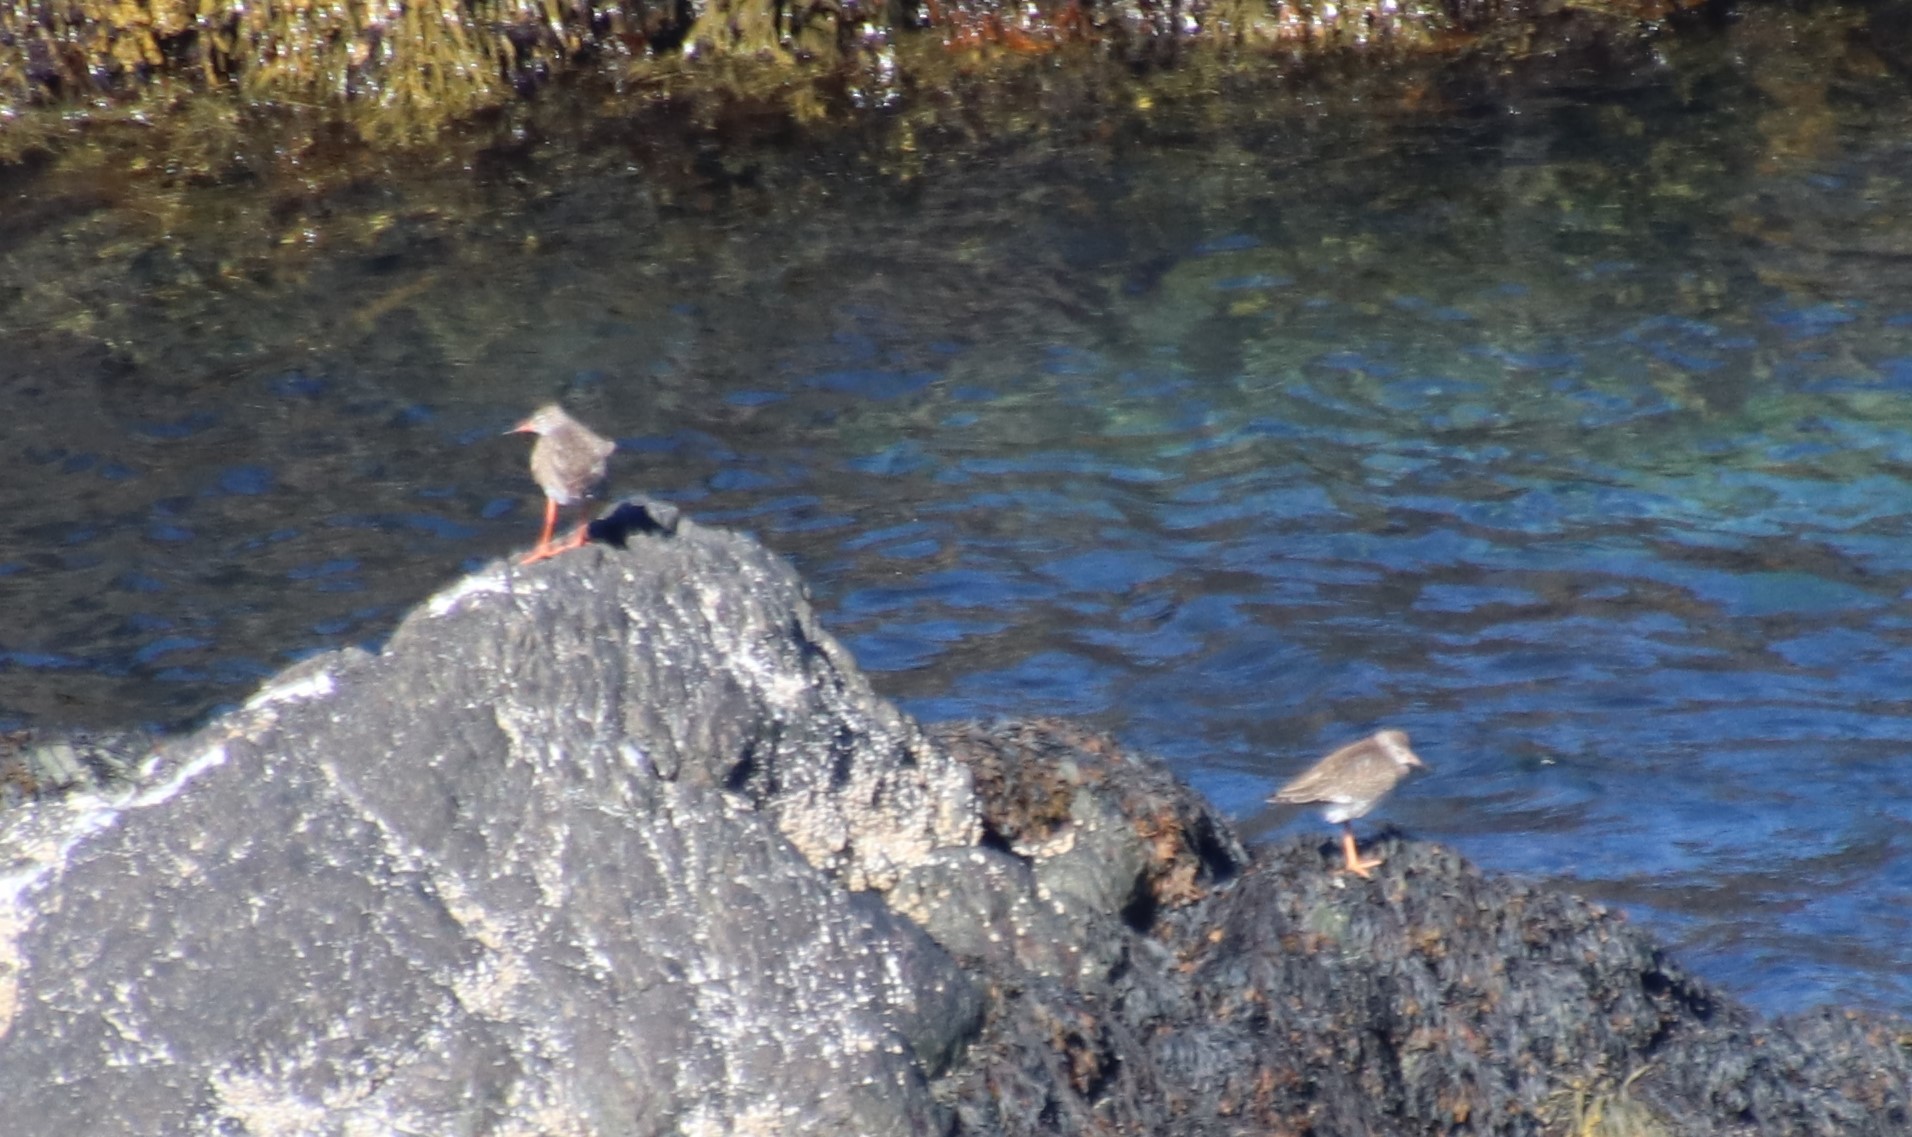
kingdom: Animalia
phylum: Chordata
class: Aves
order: Charadriiformes
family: Scolopacidae
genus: Tringa
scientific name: Tringa totanus
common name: Common redshank
